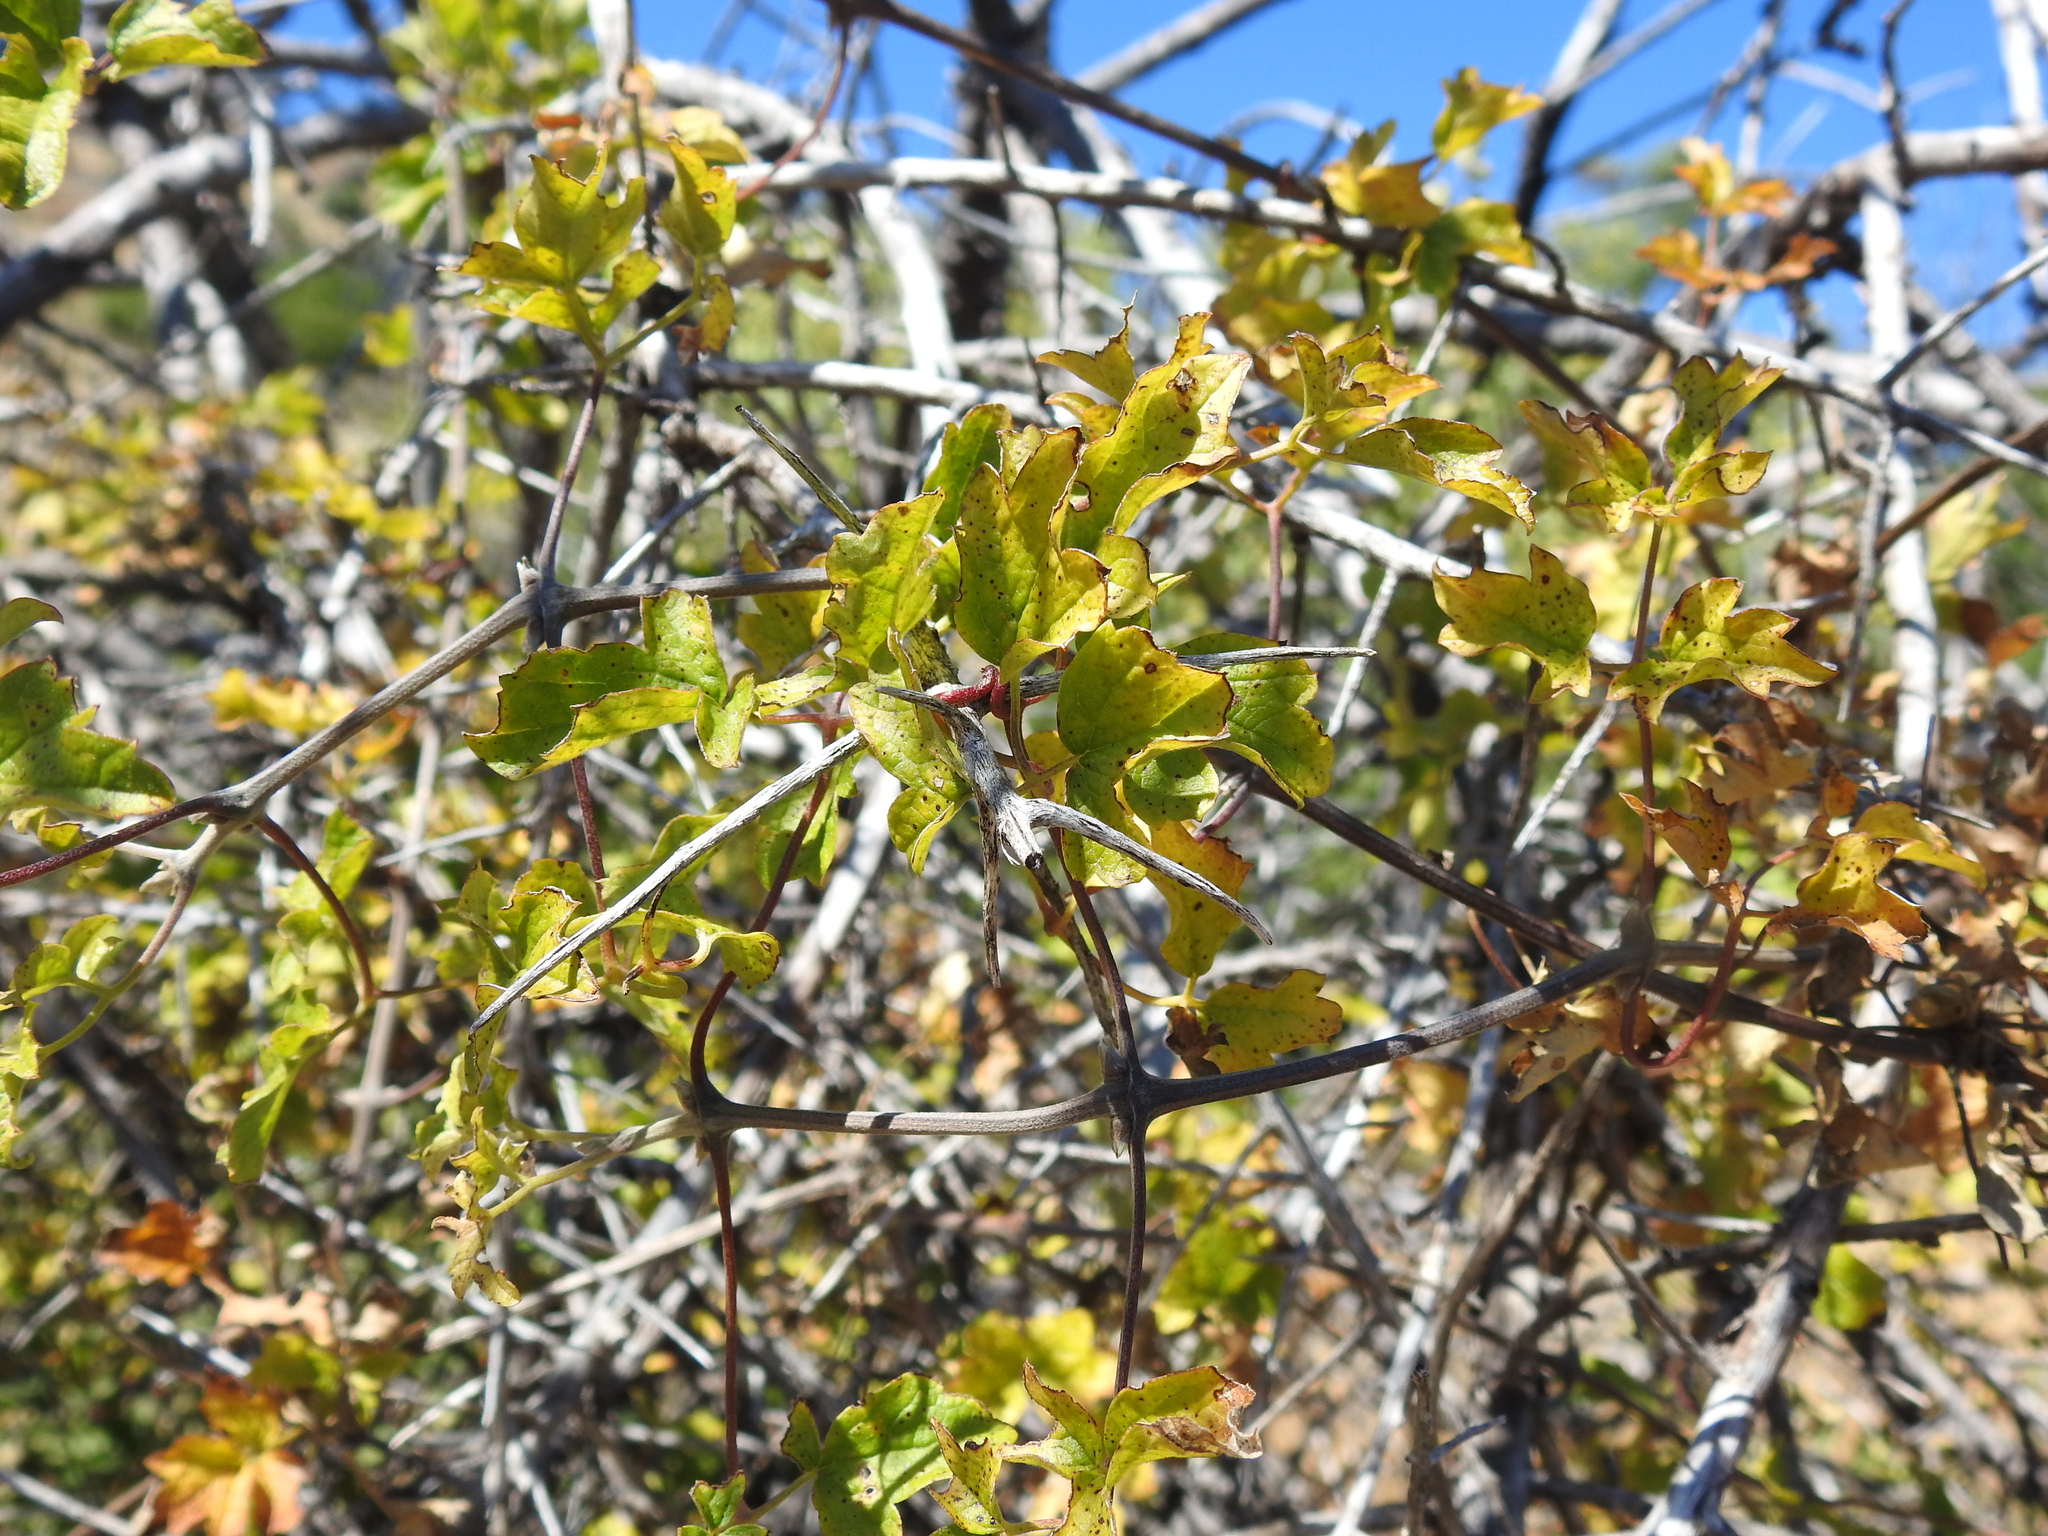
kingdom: Plantae
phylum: Tracheophyta
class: Magnoliopsida
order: Ranunculales
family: Ranunculaceae
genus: Clematis
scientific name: Clematis lasiantha
